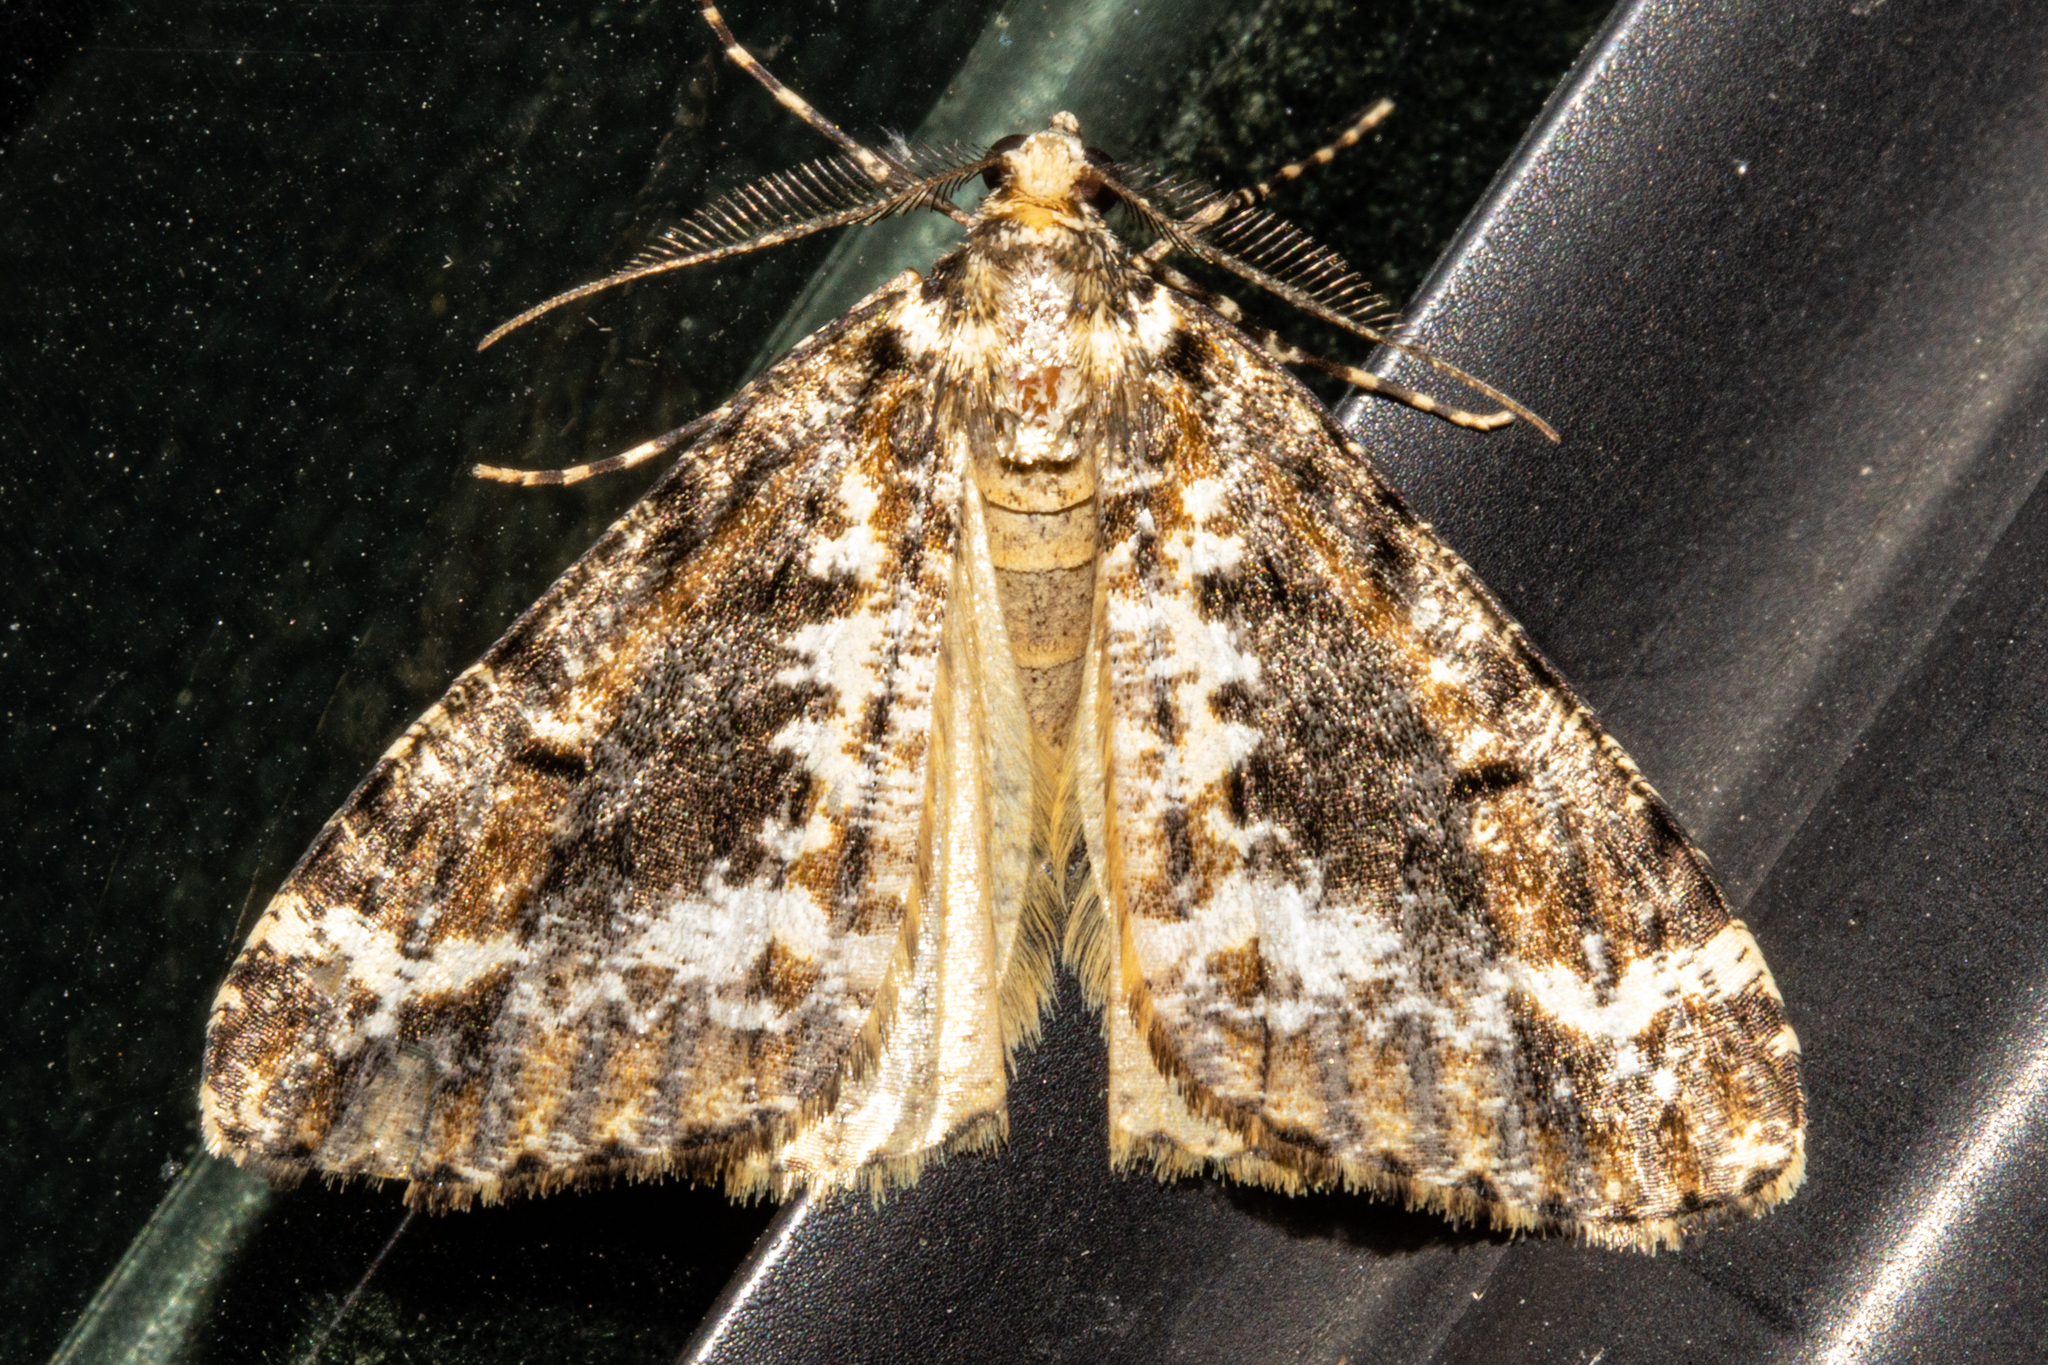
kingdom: Animalia
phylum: Arthropoda
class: Insecta
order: Lepidoptera
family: Geometridae
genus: Pseudocoremia
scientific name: Pseudocoremia leucelaea
